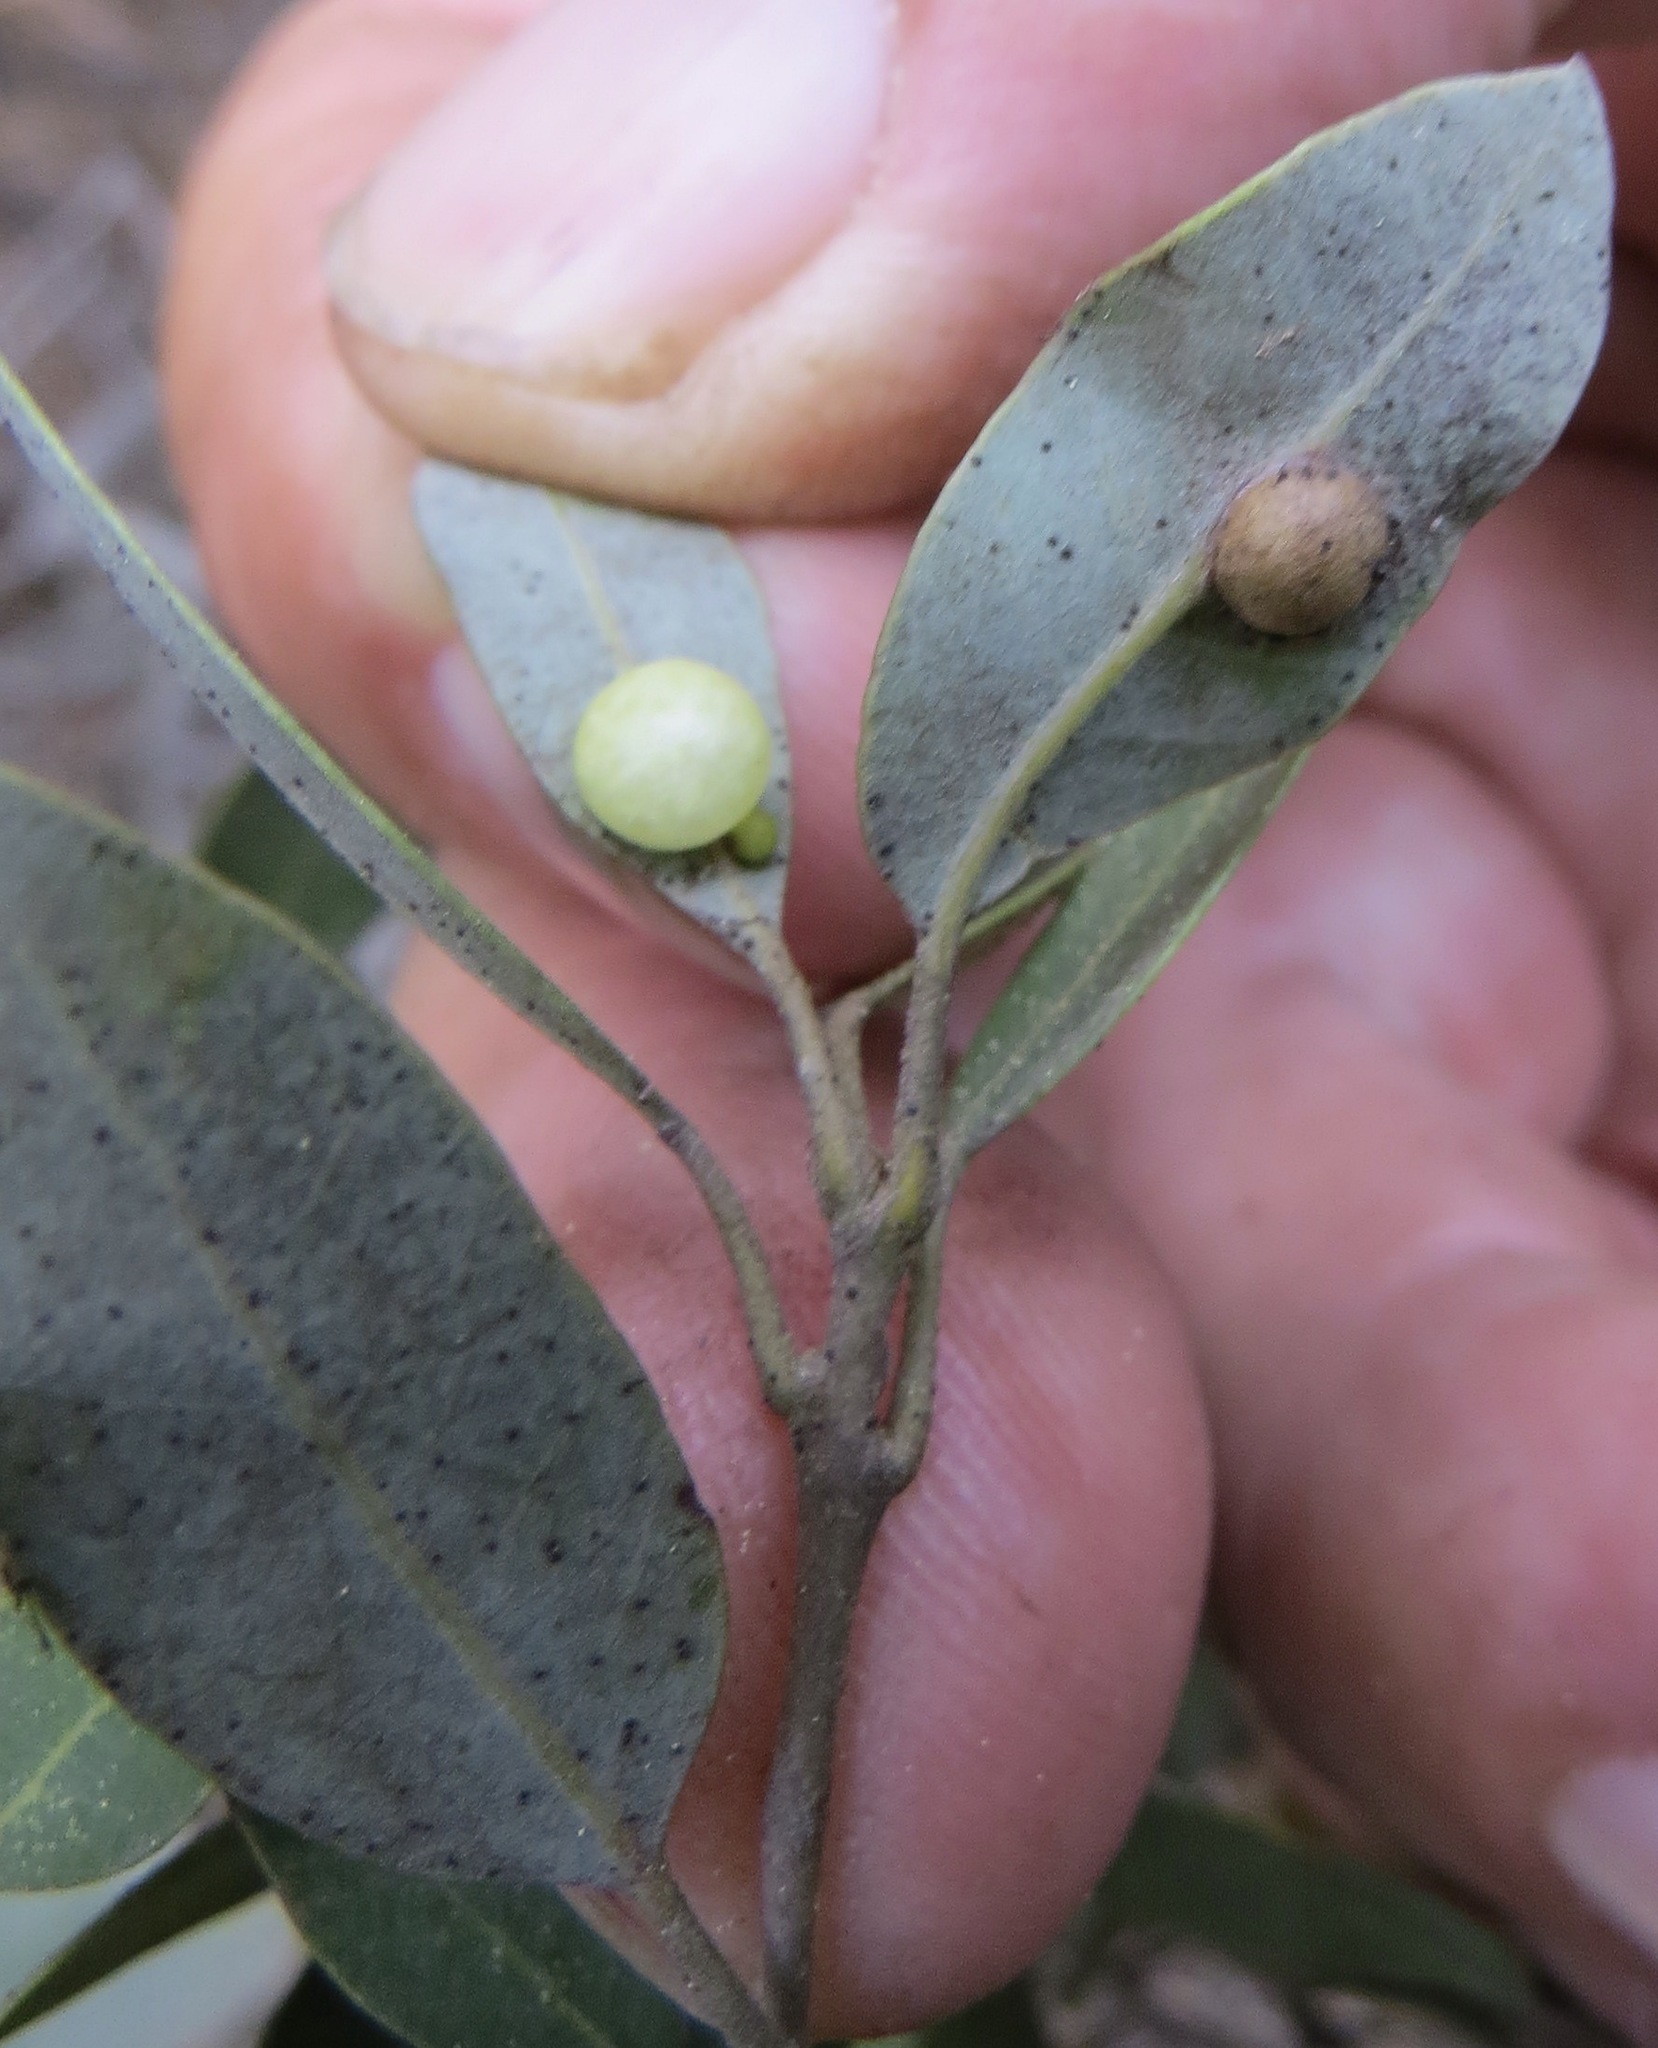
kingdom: Animalia
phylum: Arthropoda
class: Insecta
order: Hymenoptera
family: Cynipidae
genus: Heteroecus
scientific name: Heteroecus
